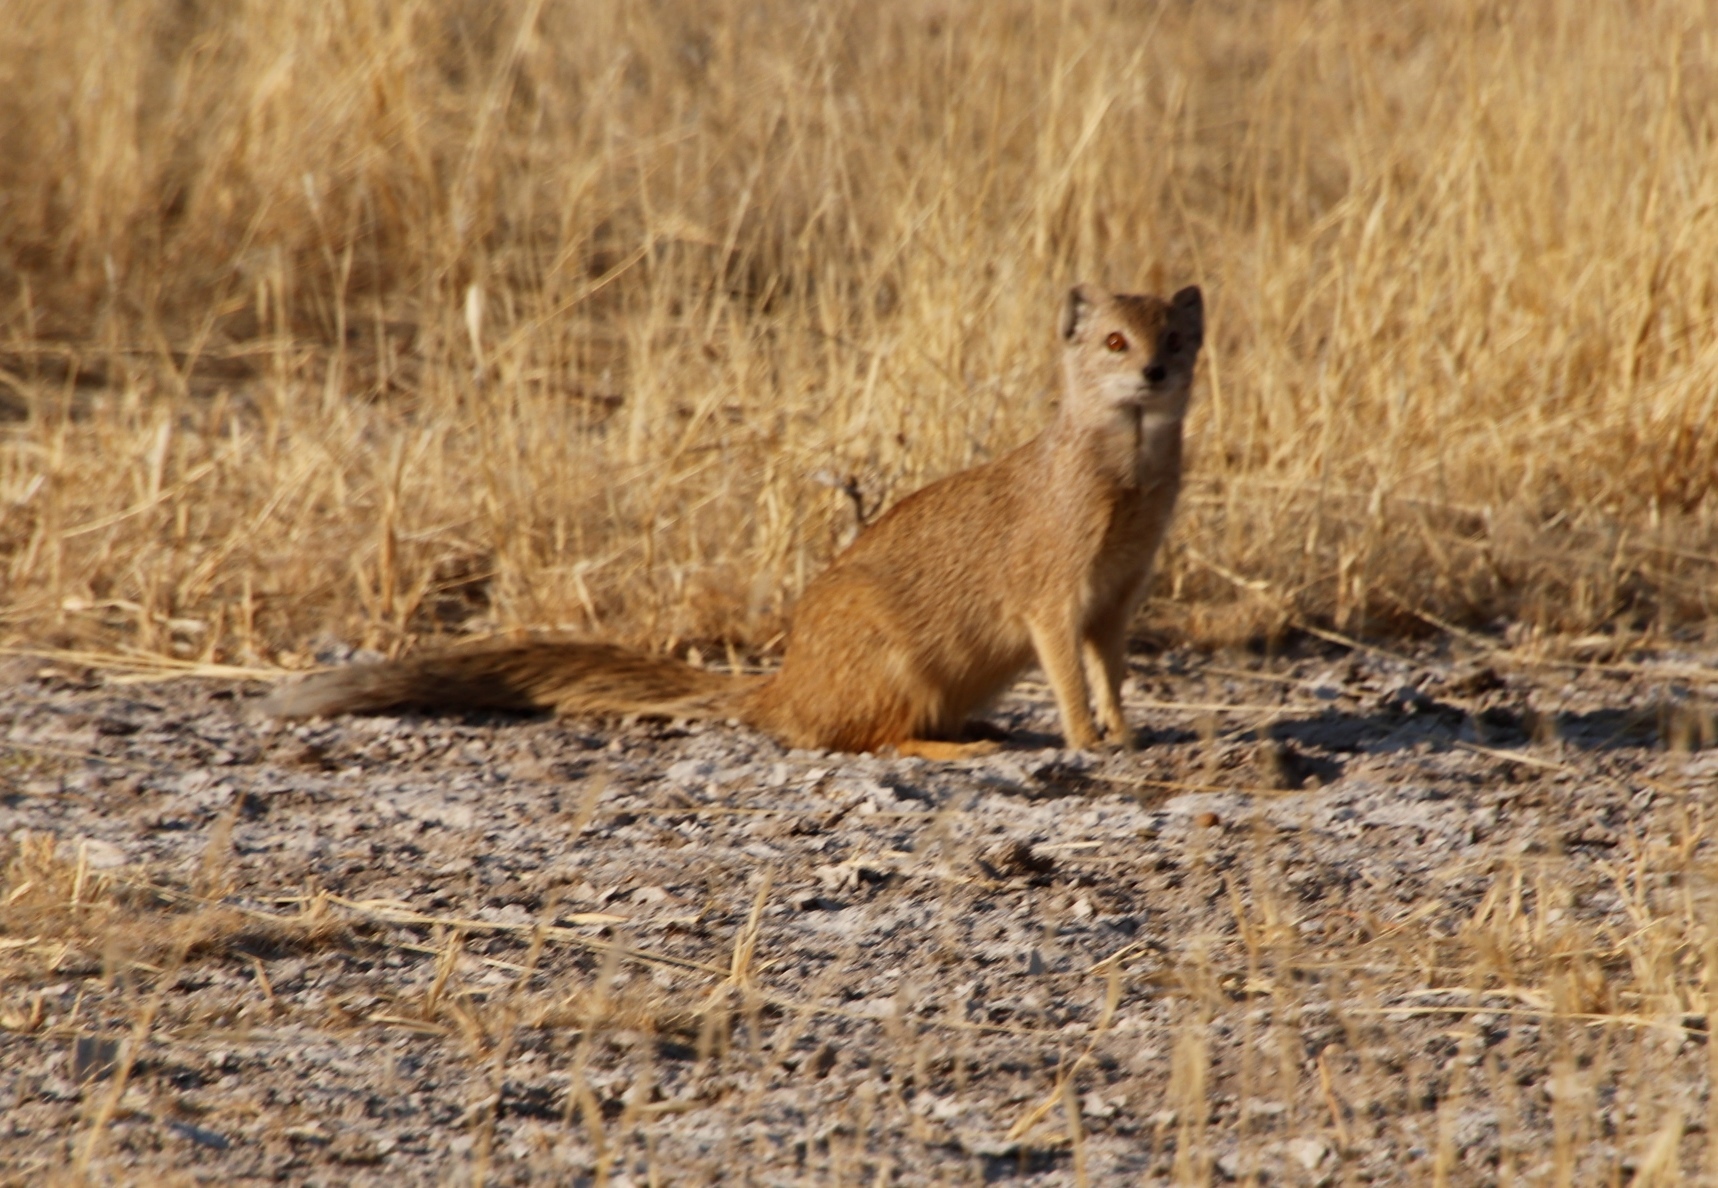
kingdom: Animalia
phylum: Chordata
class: Mammalia
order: Carnivora
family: Herpestidae
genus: Cynictis
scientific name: Cynictis penicillata
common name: Yellow mongoose
